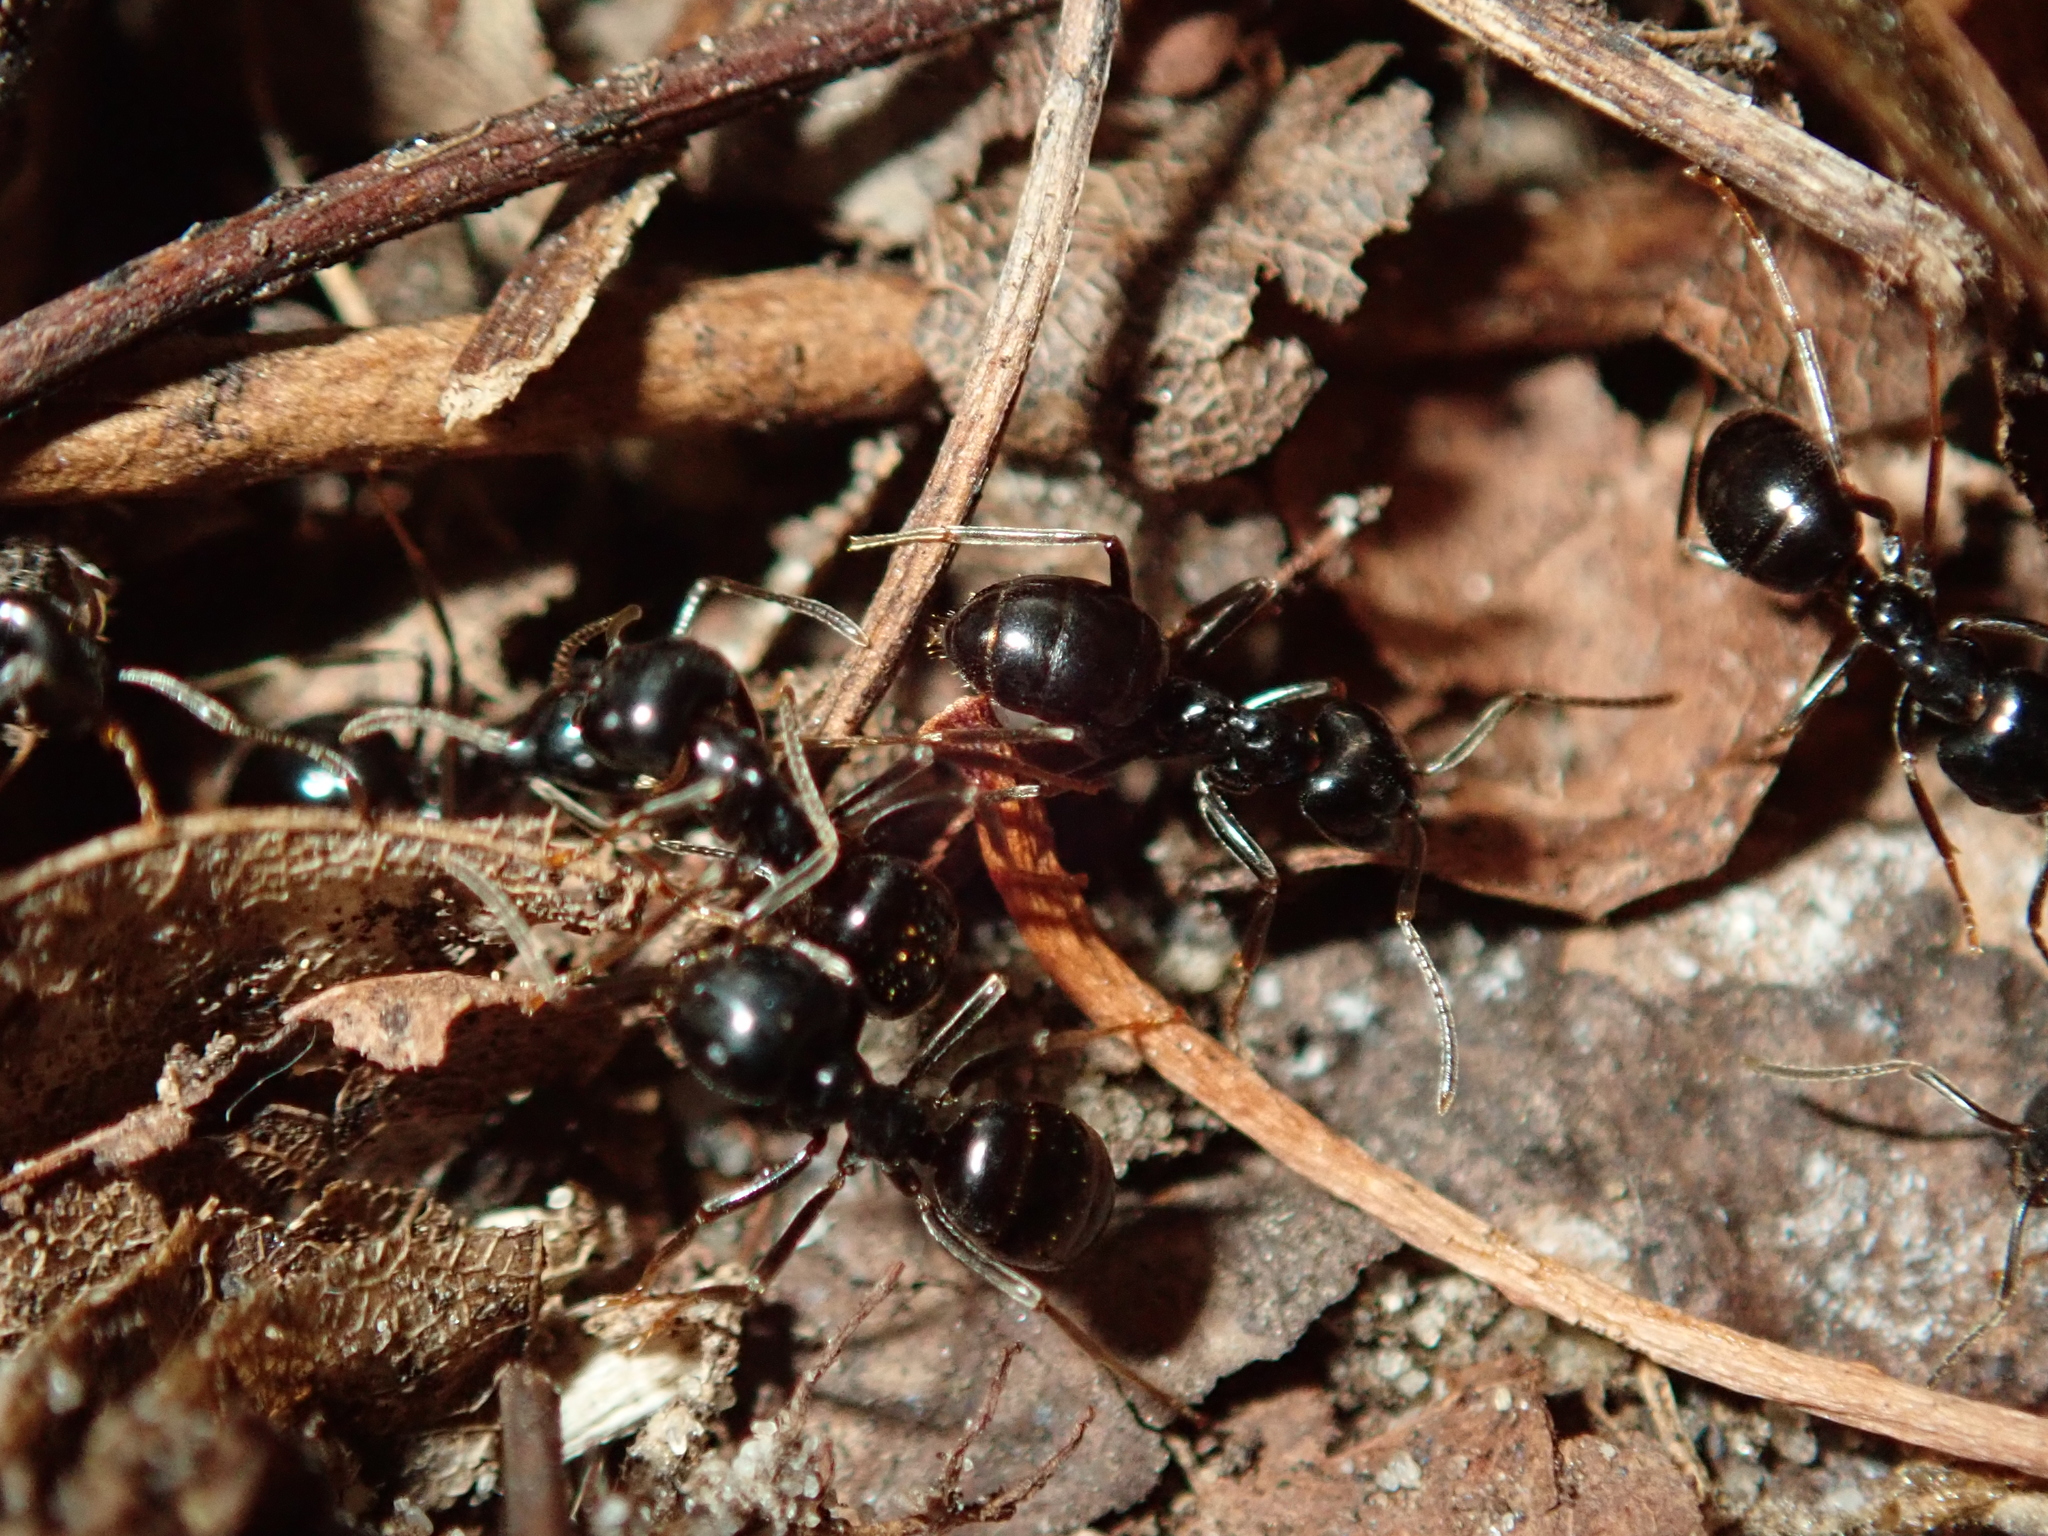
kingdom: Animalia
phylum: Arthropoda
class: Insecta
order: Hymenoptera
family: Formicidae
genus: Lasius
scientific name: Lasius fuliginosus
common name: Jet ant
